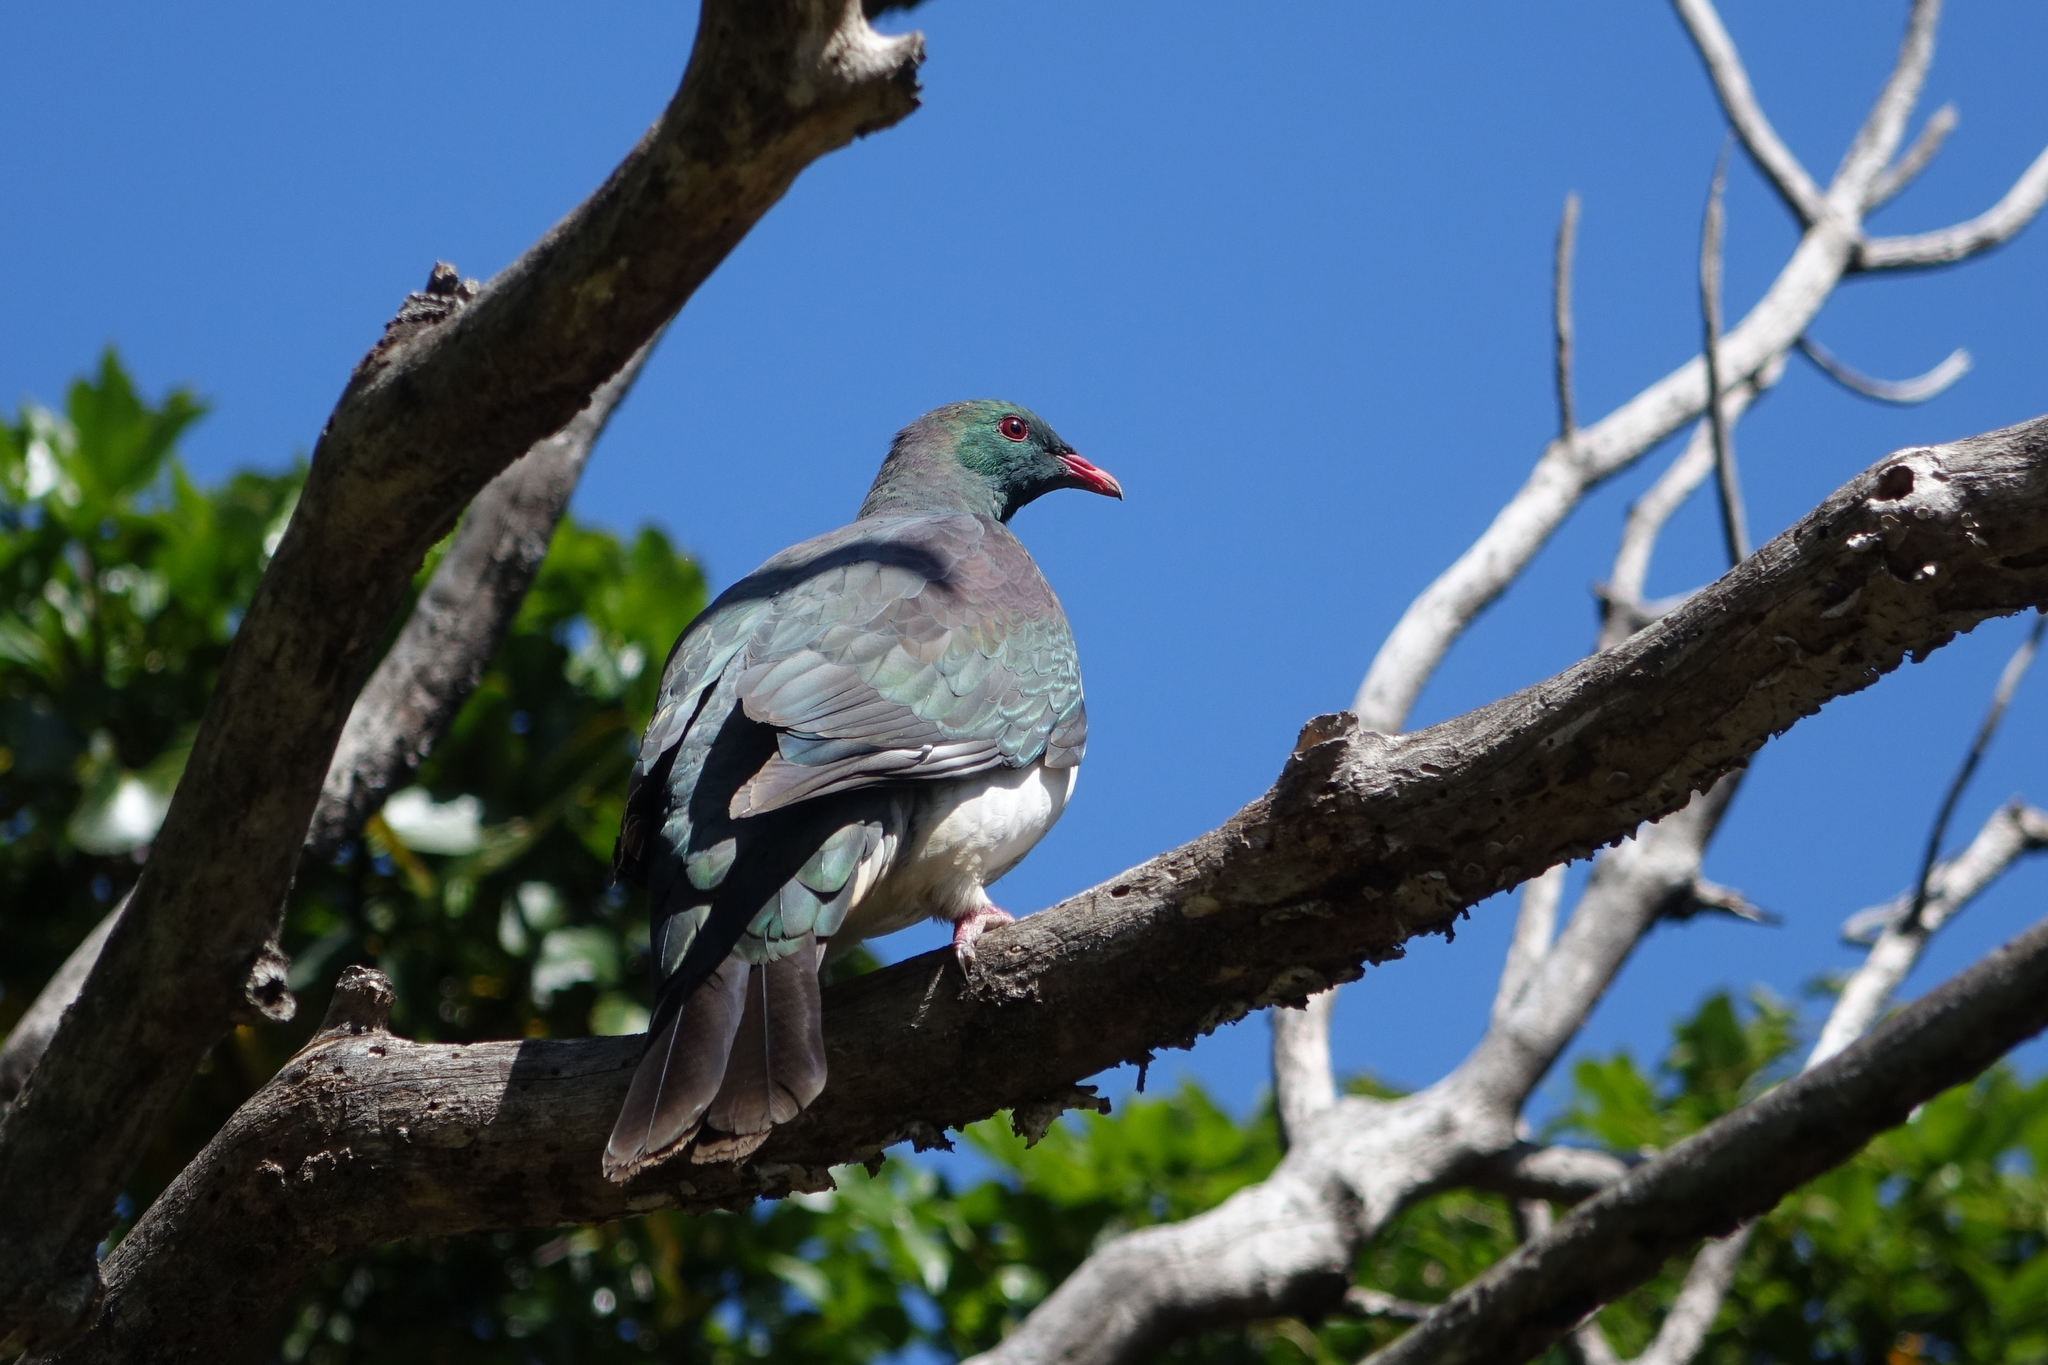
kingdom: Animalia
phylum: Chordata
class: Aves
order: Columbiformes
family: Columbidae
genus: Hemiphaga
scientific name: Hemiphaga novaeseelandiae
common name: New zealand pigeon
